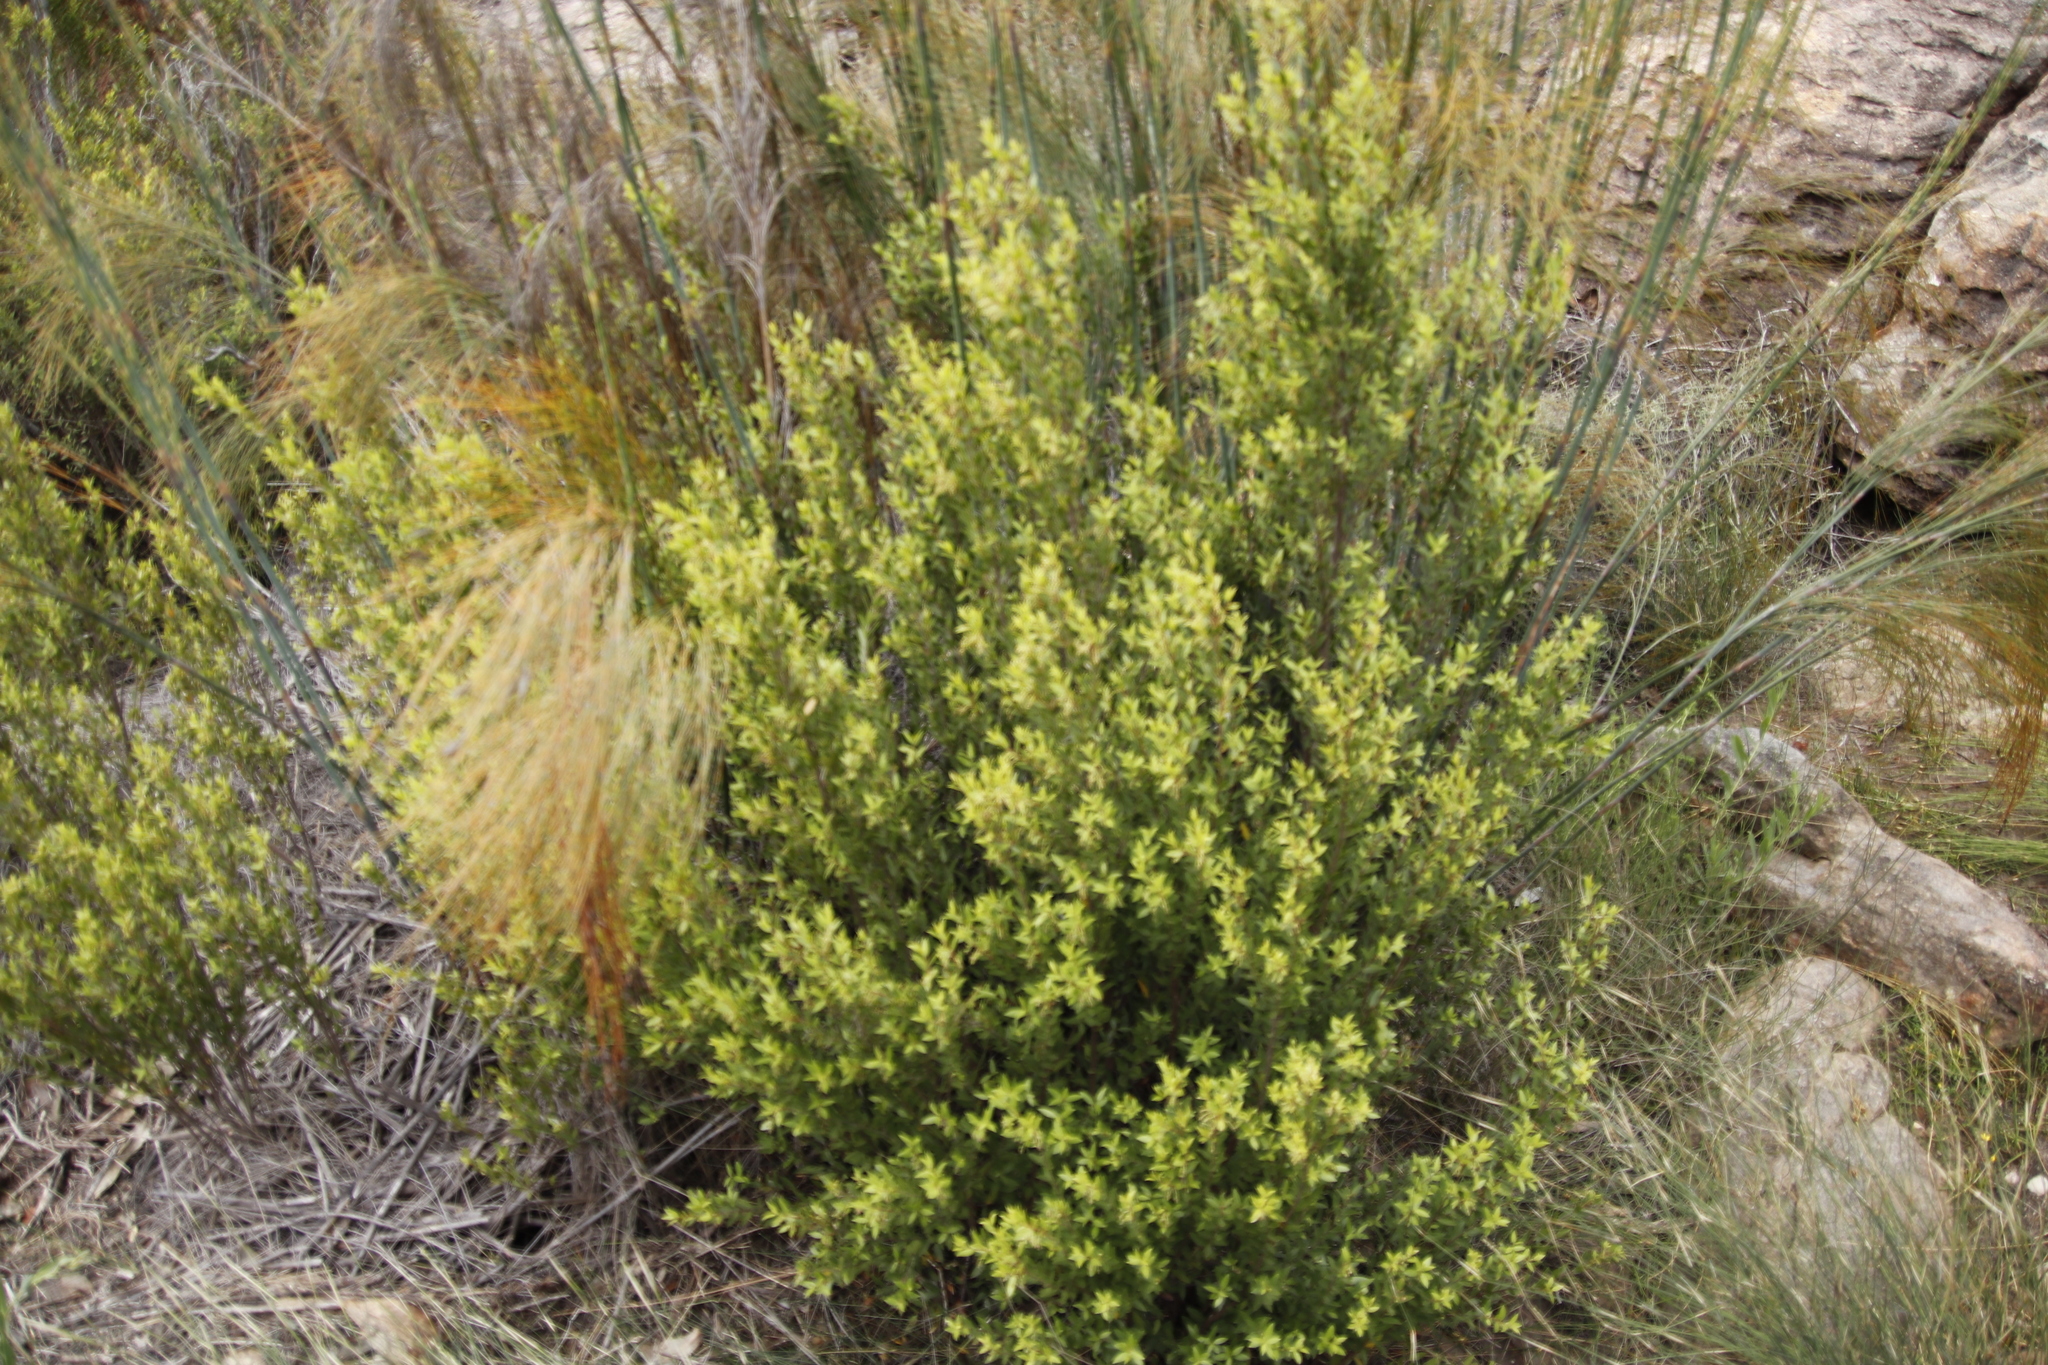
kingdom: Plantae
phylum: Tracheophyta
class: Liliopsida
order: Poales
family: Restionaceae
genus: Cannomois
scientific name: Cannomois robusta
